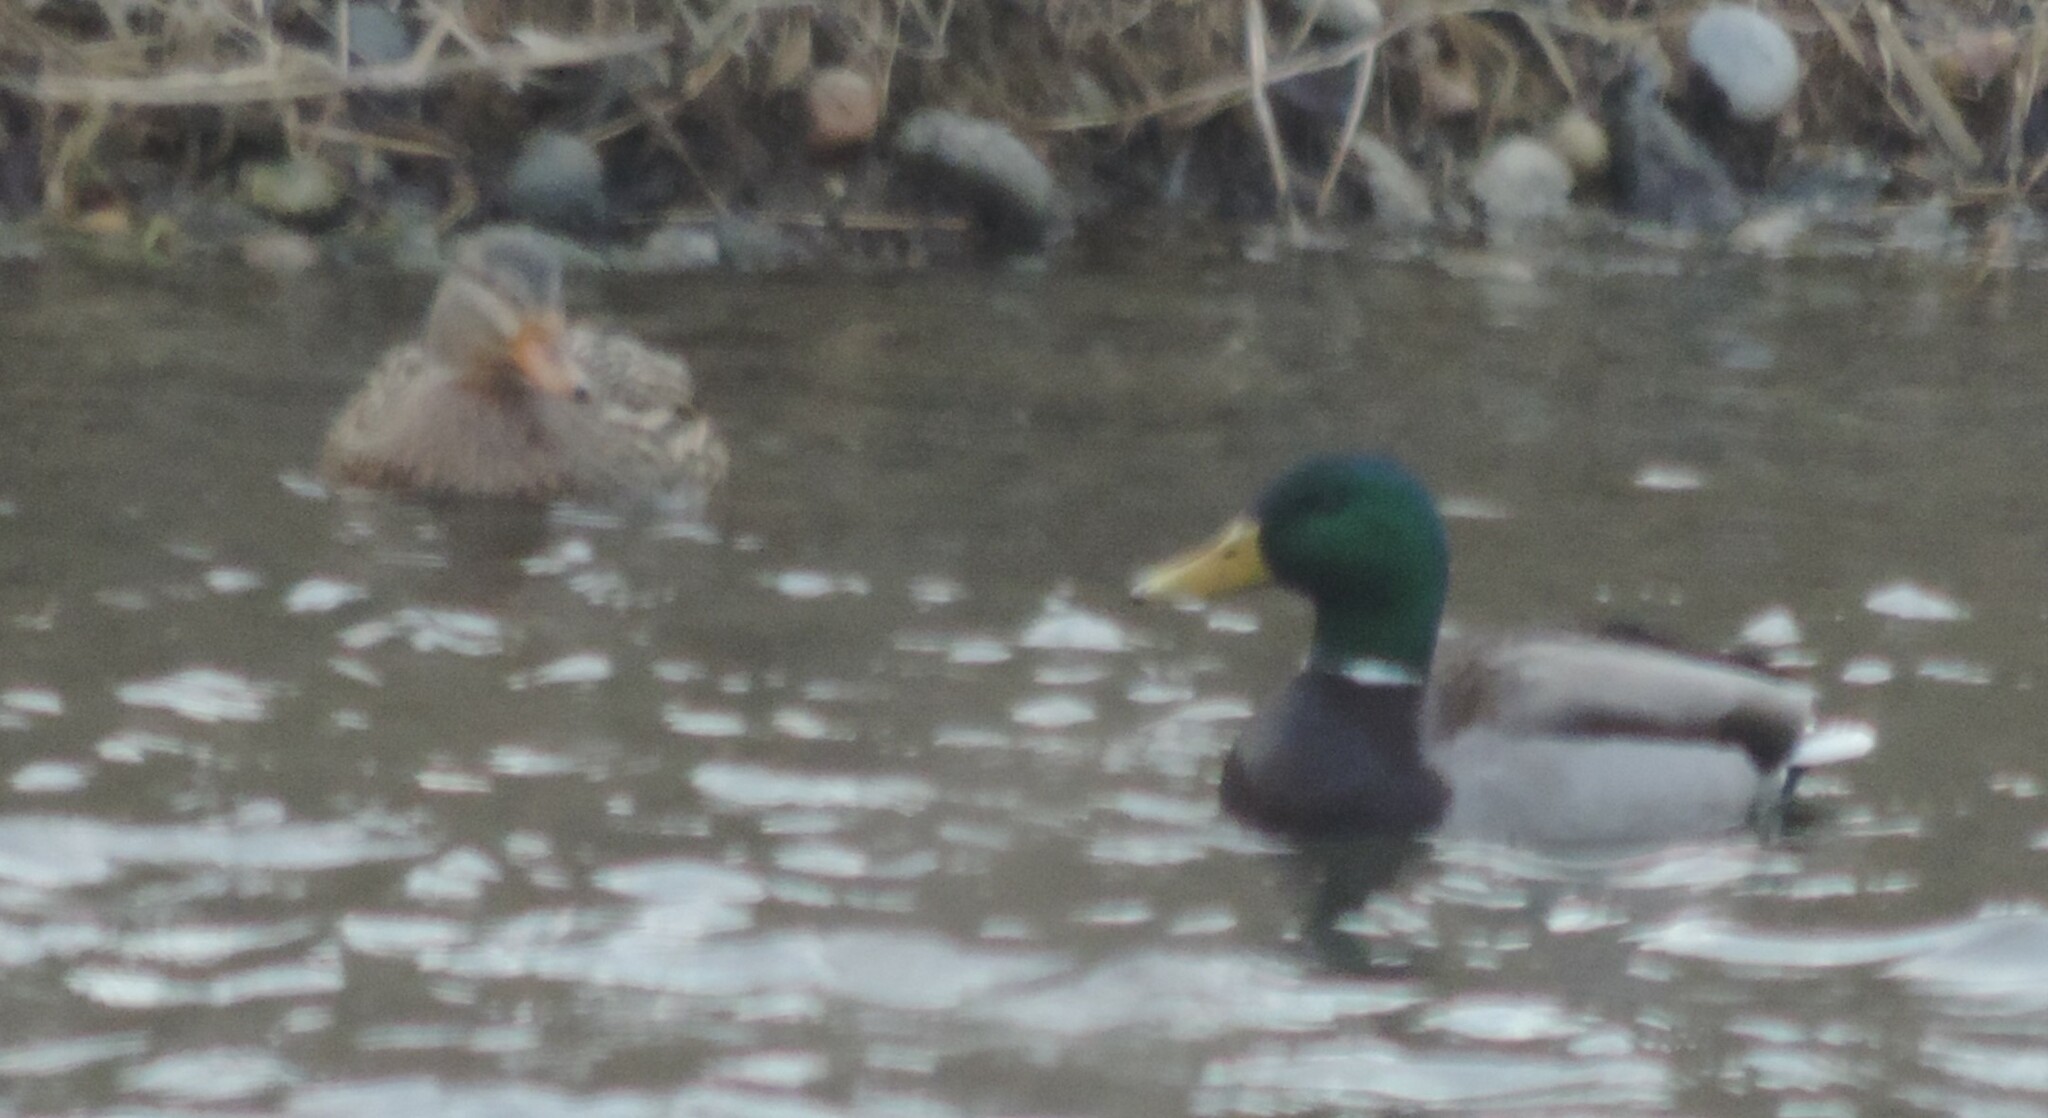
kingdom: Animalia
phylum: Chordata
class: Aves
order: Anseriformes
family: Anatidae
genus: Anas
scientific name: Anas platyrhynchos
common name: Mallard
